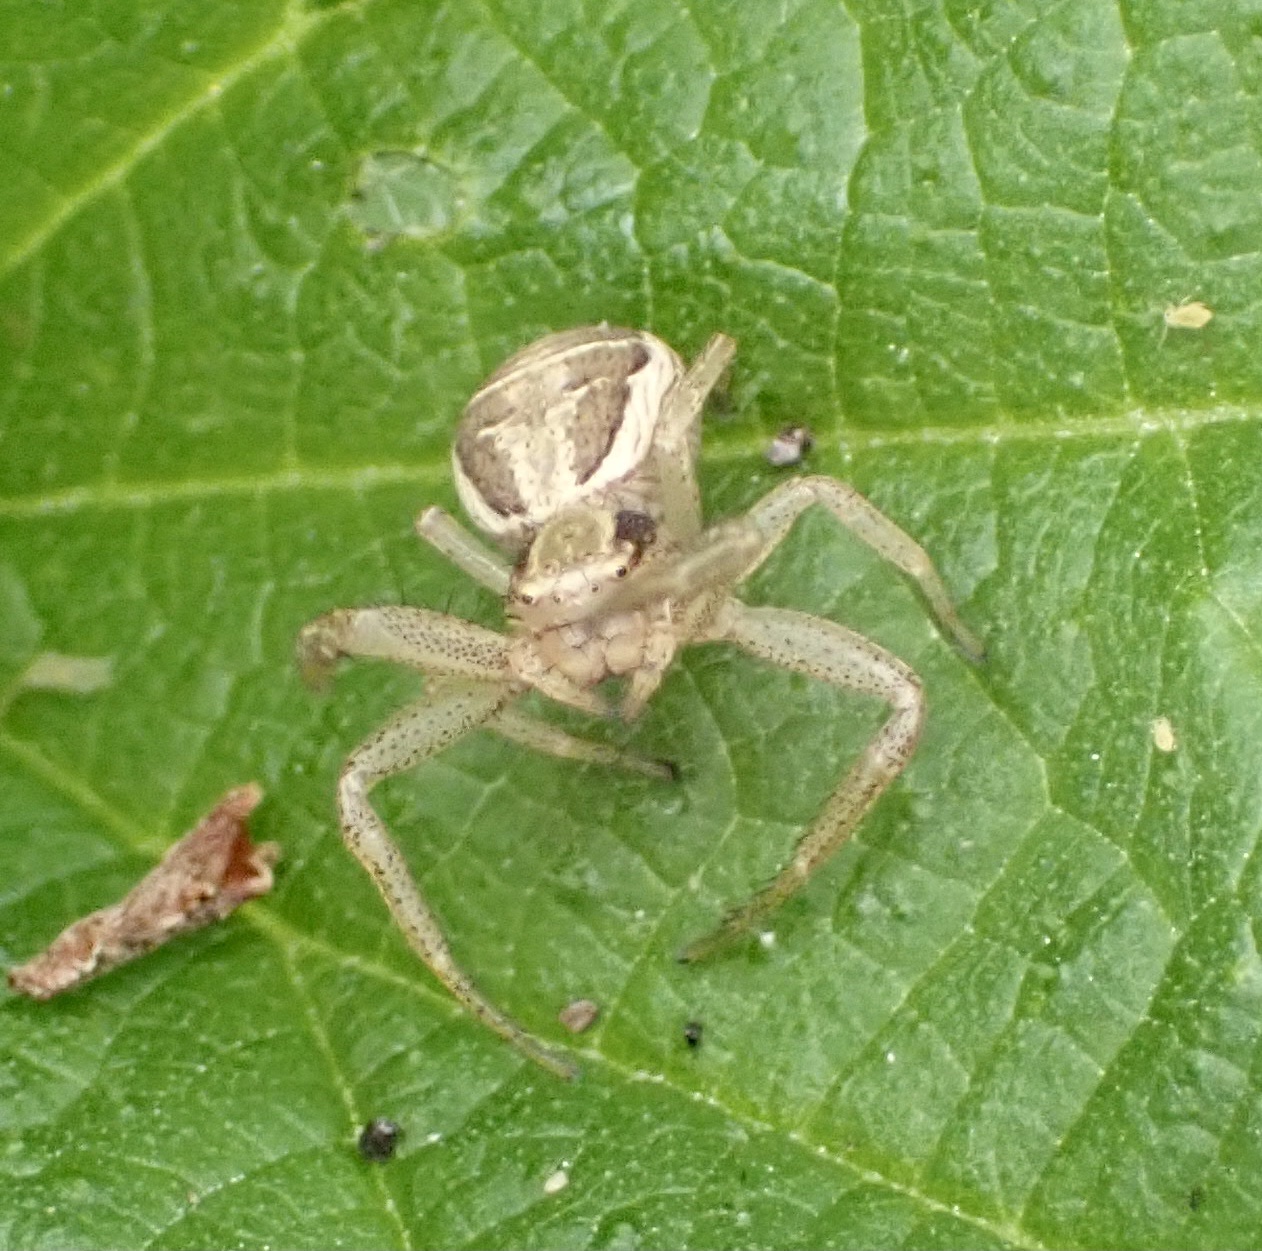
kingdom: Animalia
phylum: Arthropoda
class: Arachnida
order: Araneae
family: Thomisidae
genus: Xysticus
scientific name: Xysticus ulmi
